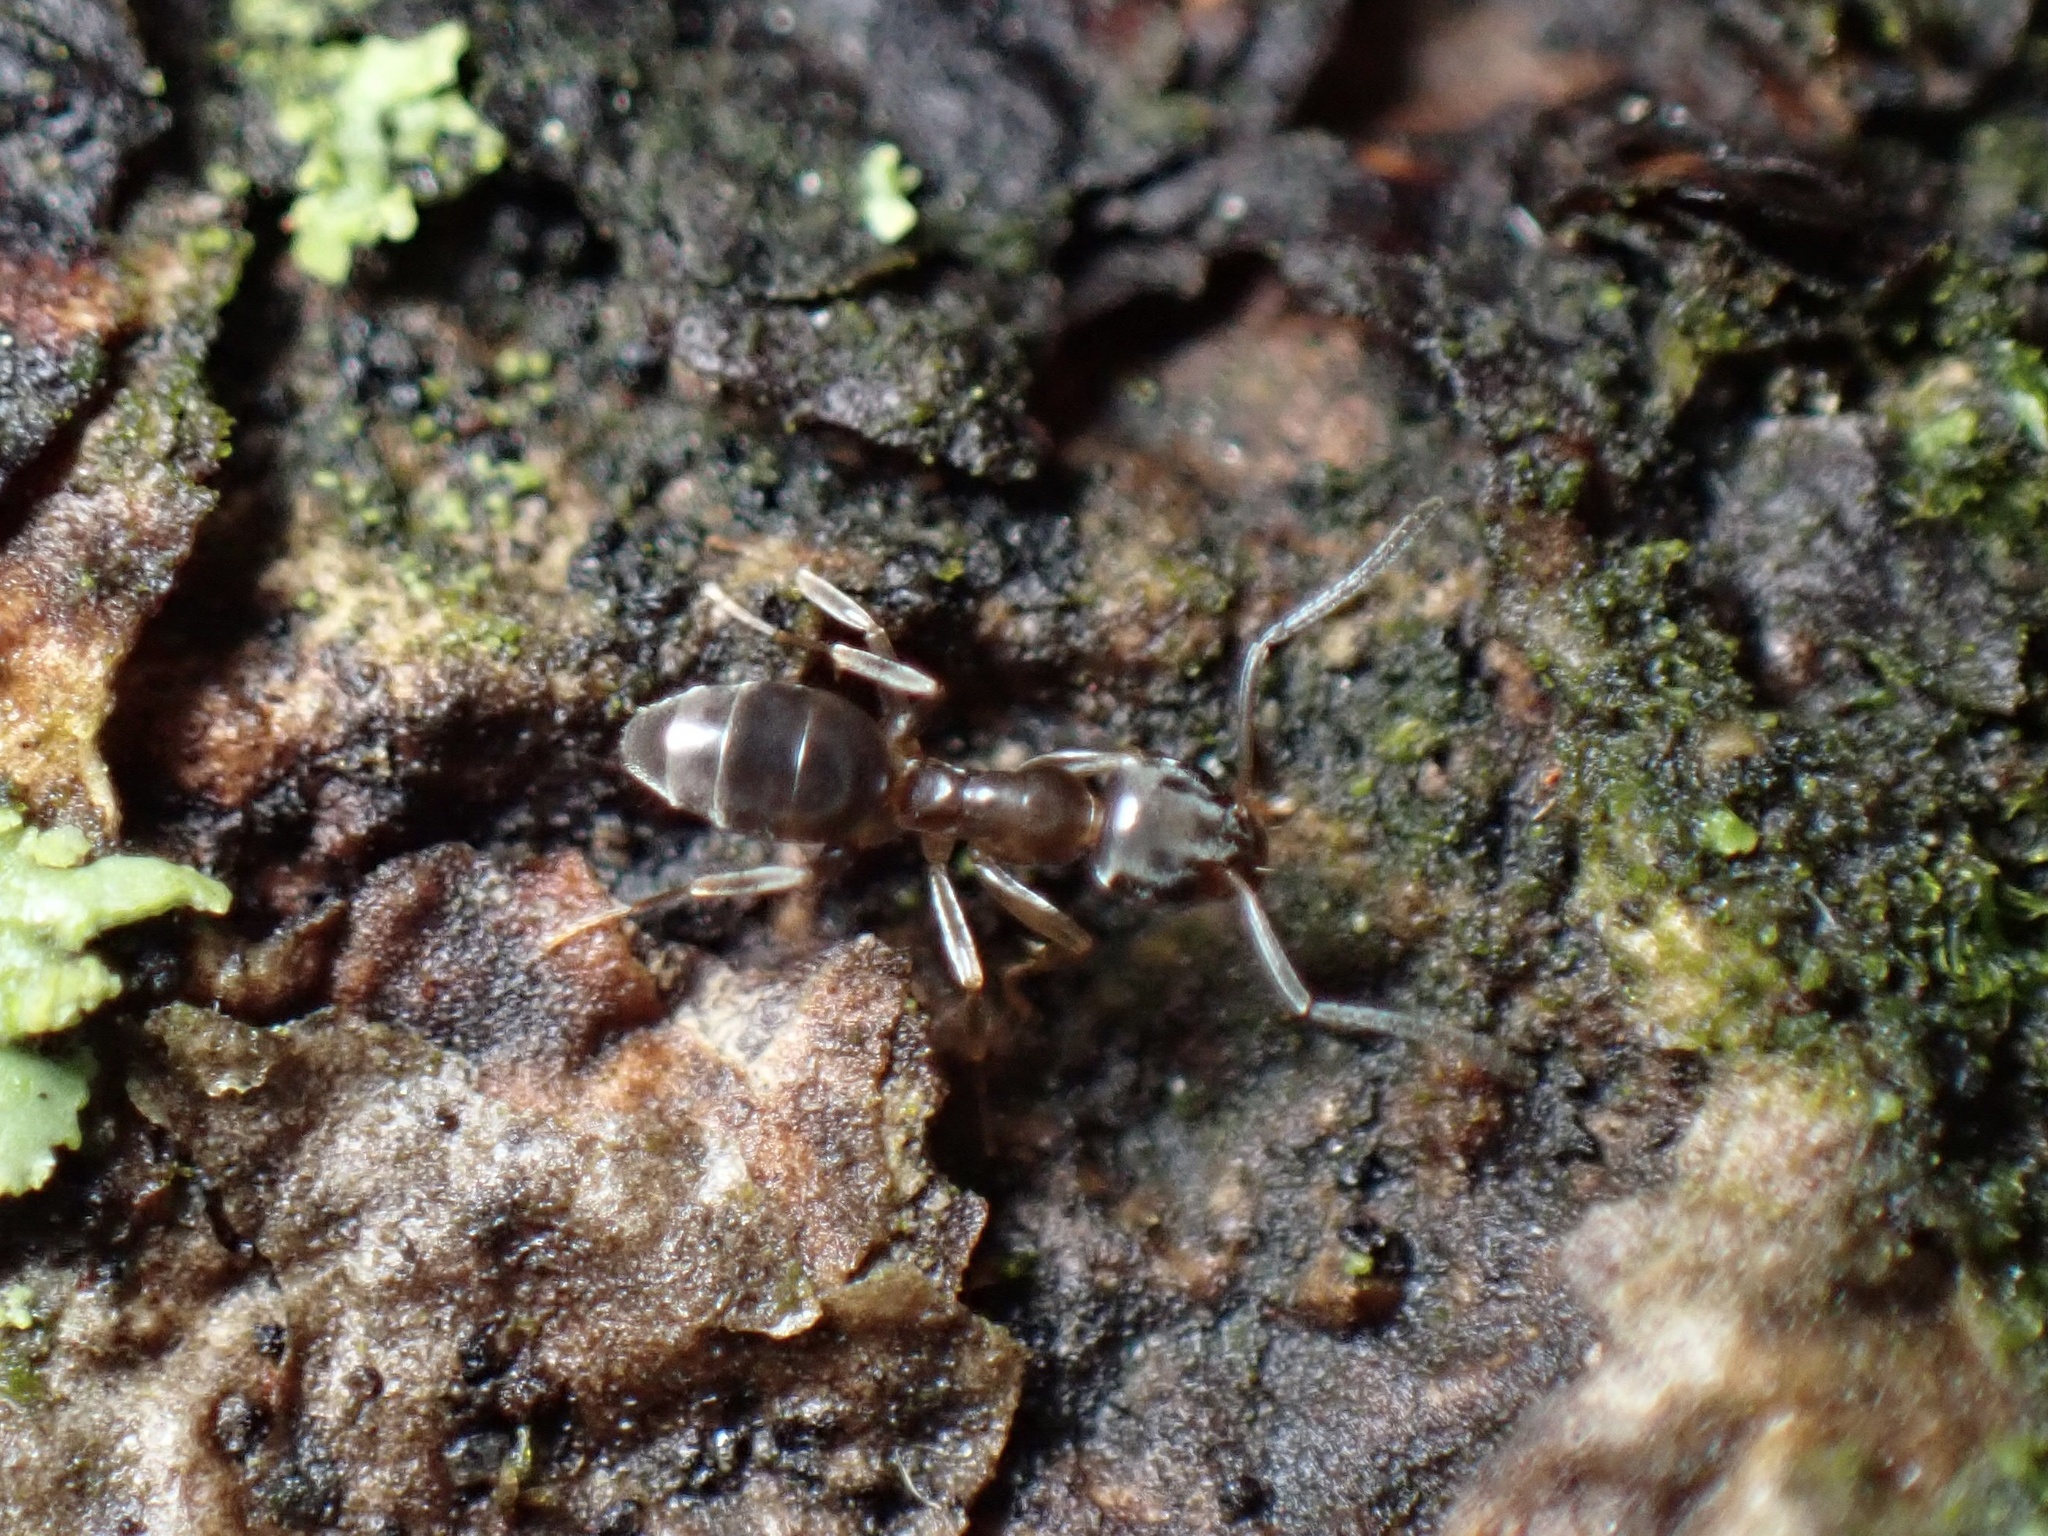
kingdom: Animalia
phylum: Arthropoda
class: Insecta
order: Hymenoptera
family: Formicidae
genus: Tapinoma
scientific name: Tapinoma sessile
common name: Odorous house ant
